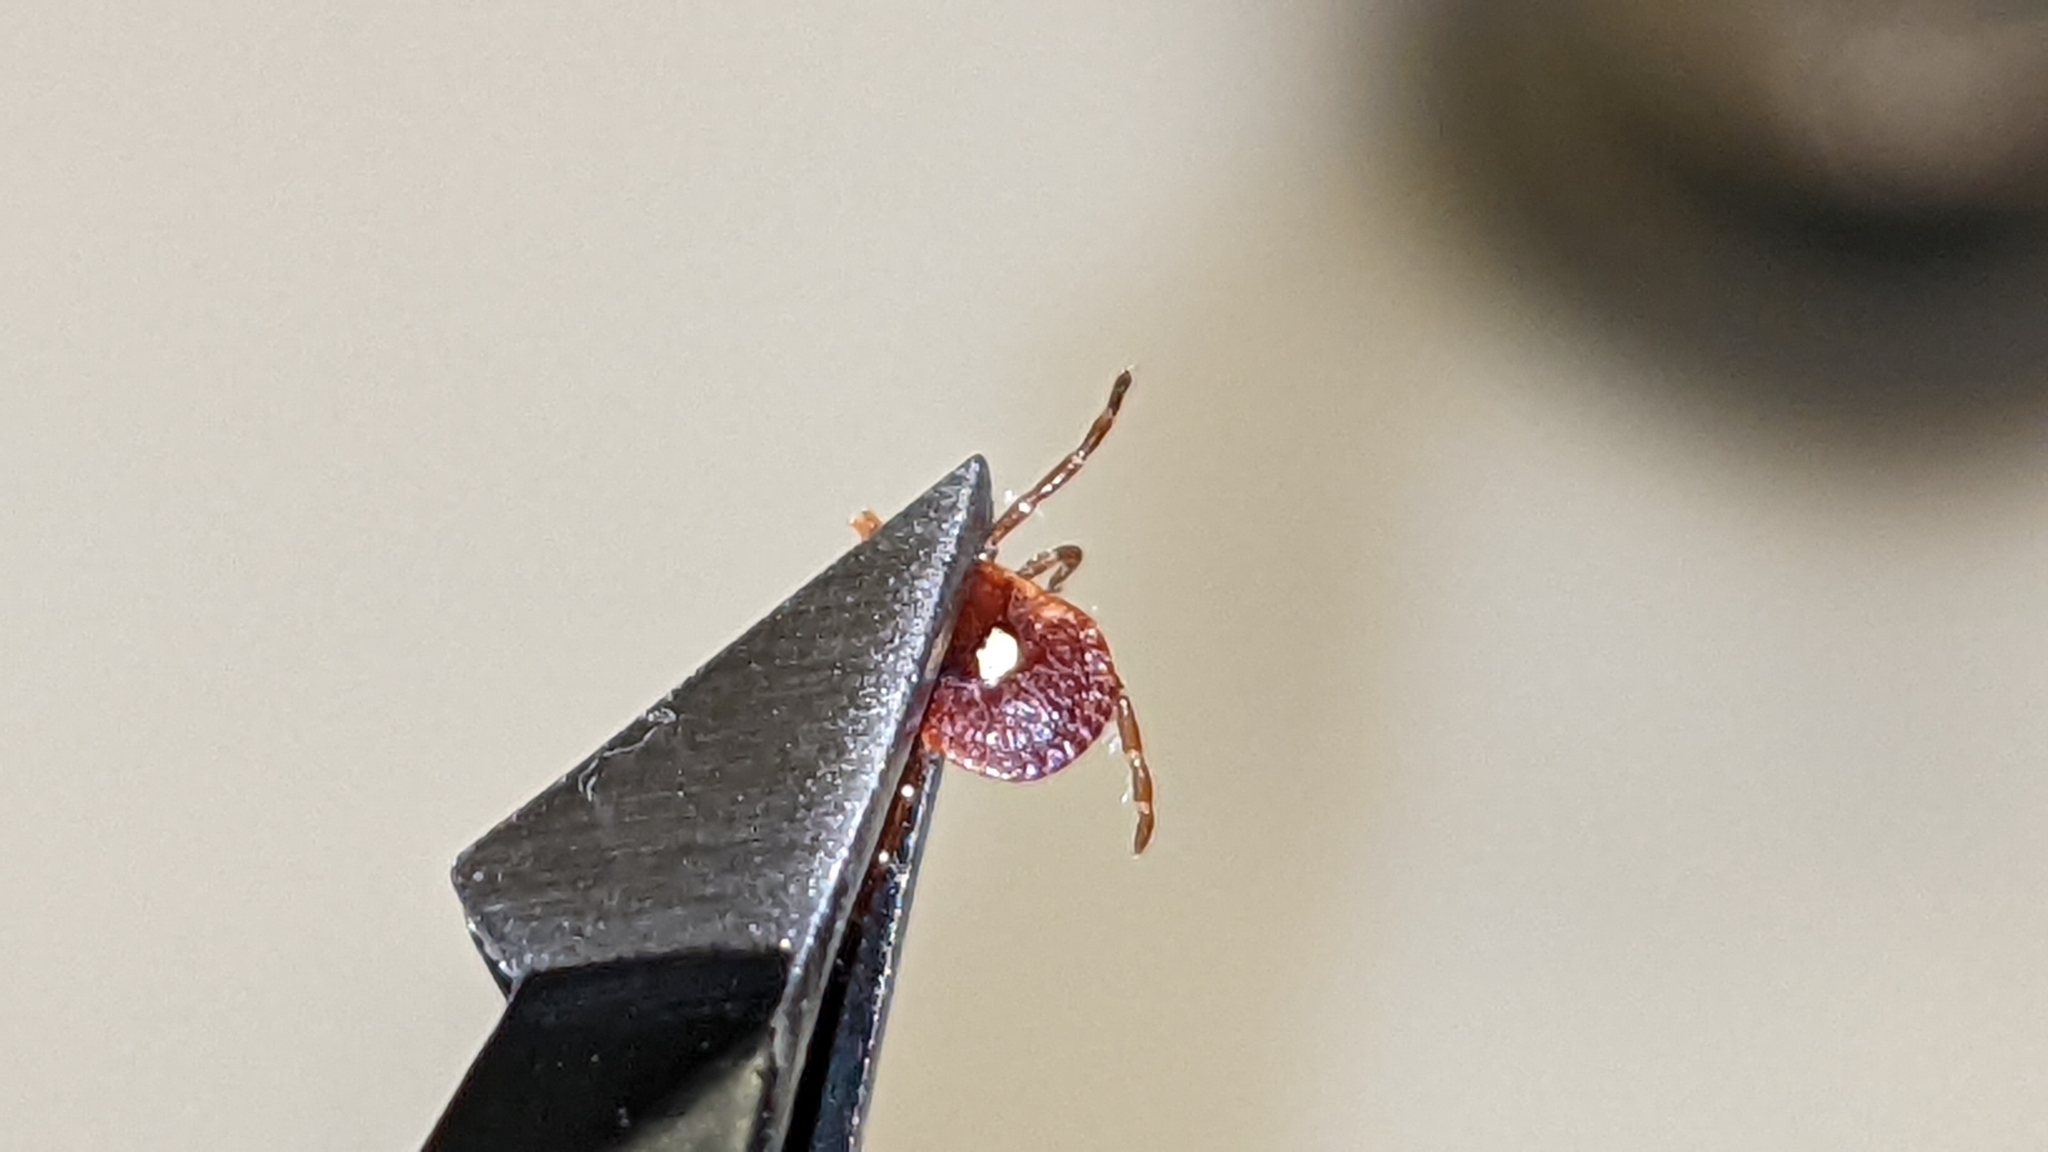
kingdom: Animalia
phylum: Arthropoda
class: Arachnida
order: Ixodida
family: Ixodidae
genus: Amblyomma
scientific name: Amblyomma americanum
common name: Lone star tick
